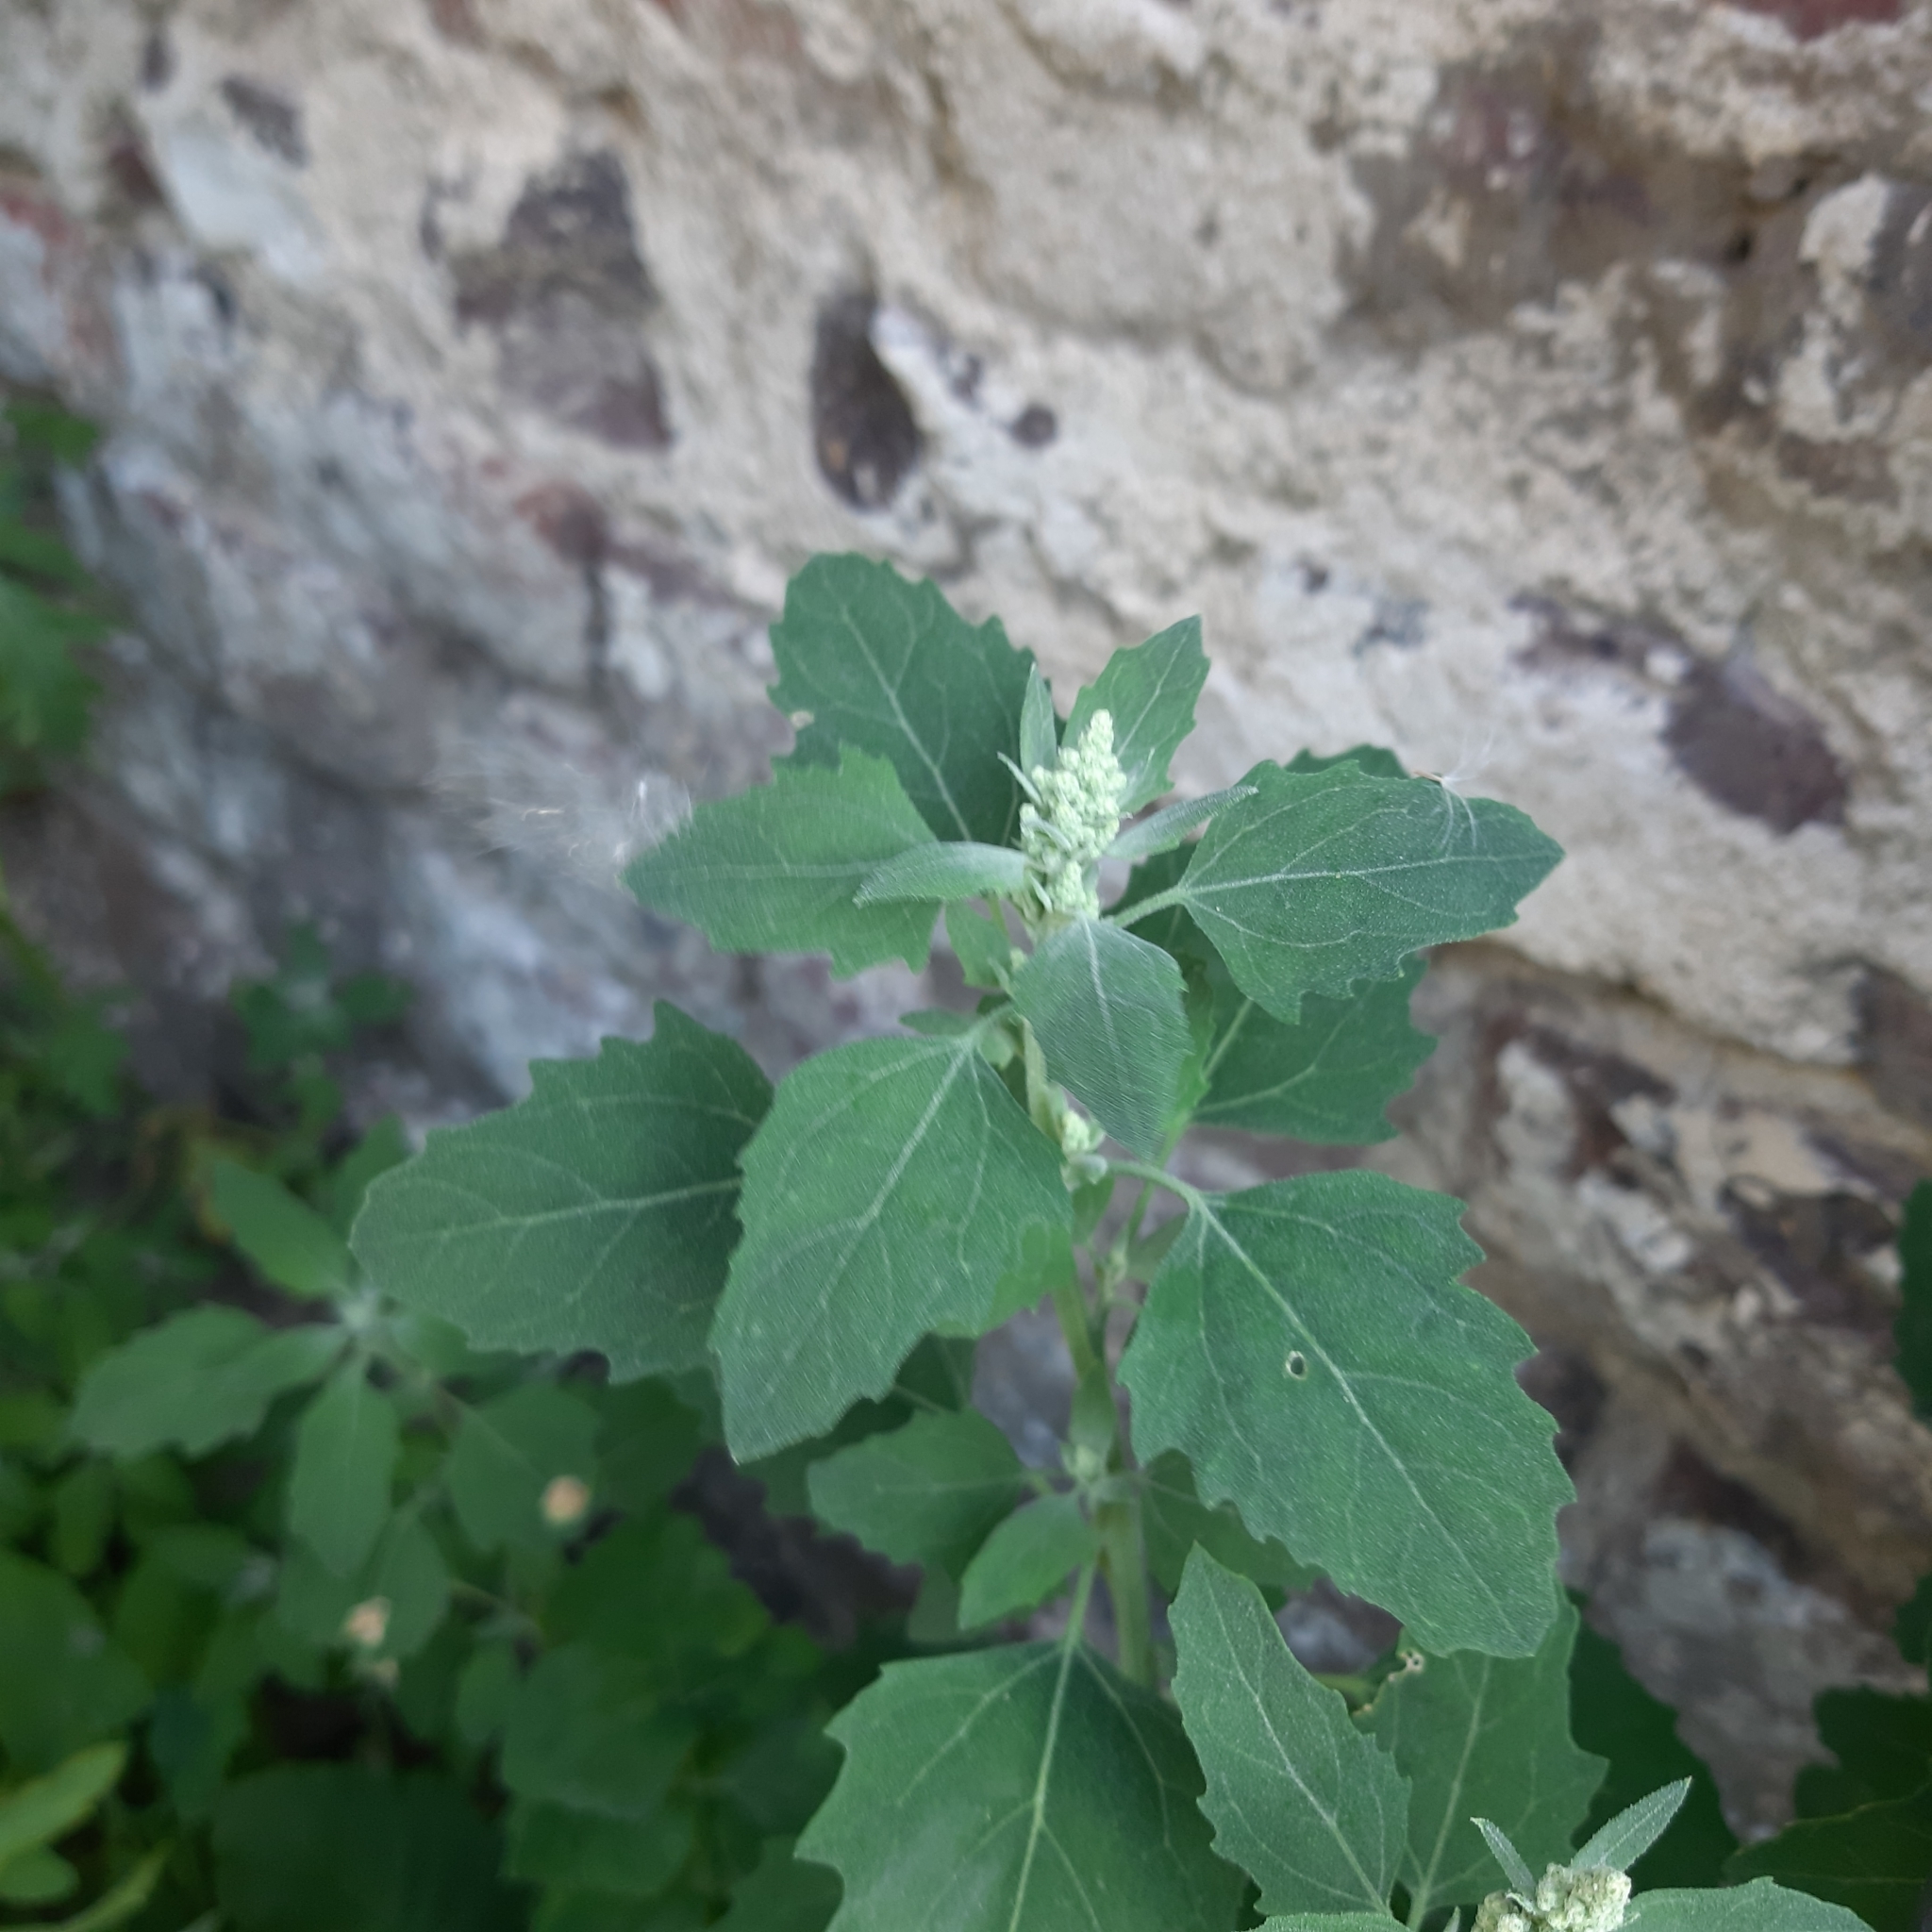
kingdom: Plantae
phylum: Tracheophyta
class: Magnoliopsida
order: Caryophyllales
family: Amaranthaceae
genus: Chenopodium
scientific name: Chenopodium album
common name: Fat-hen
